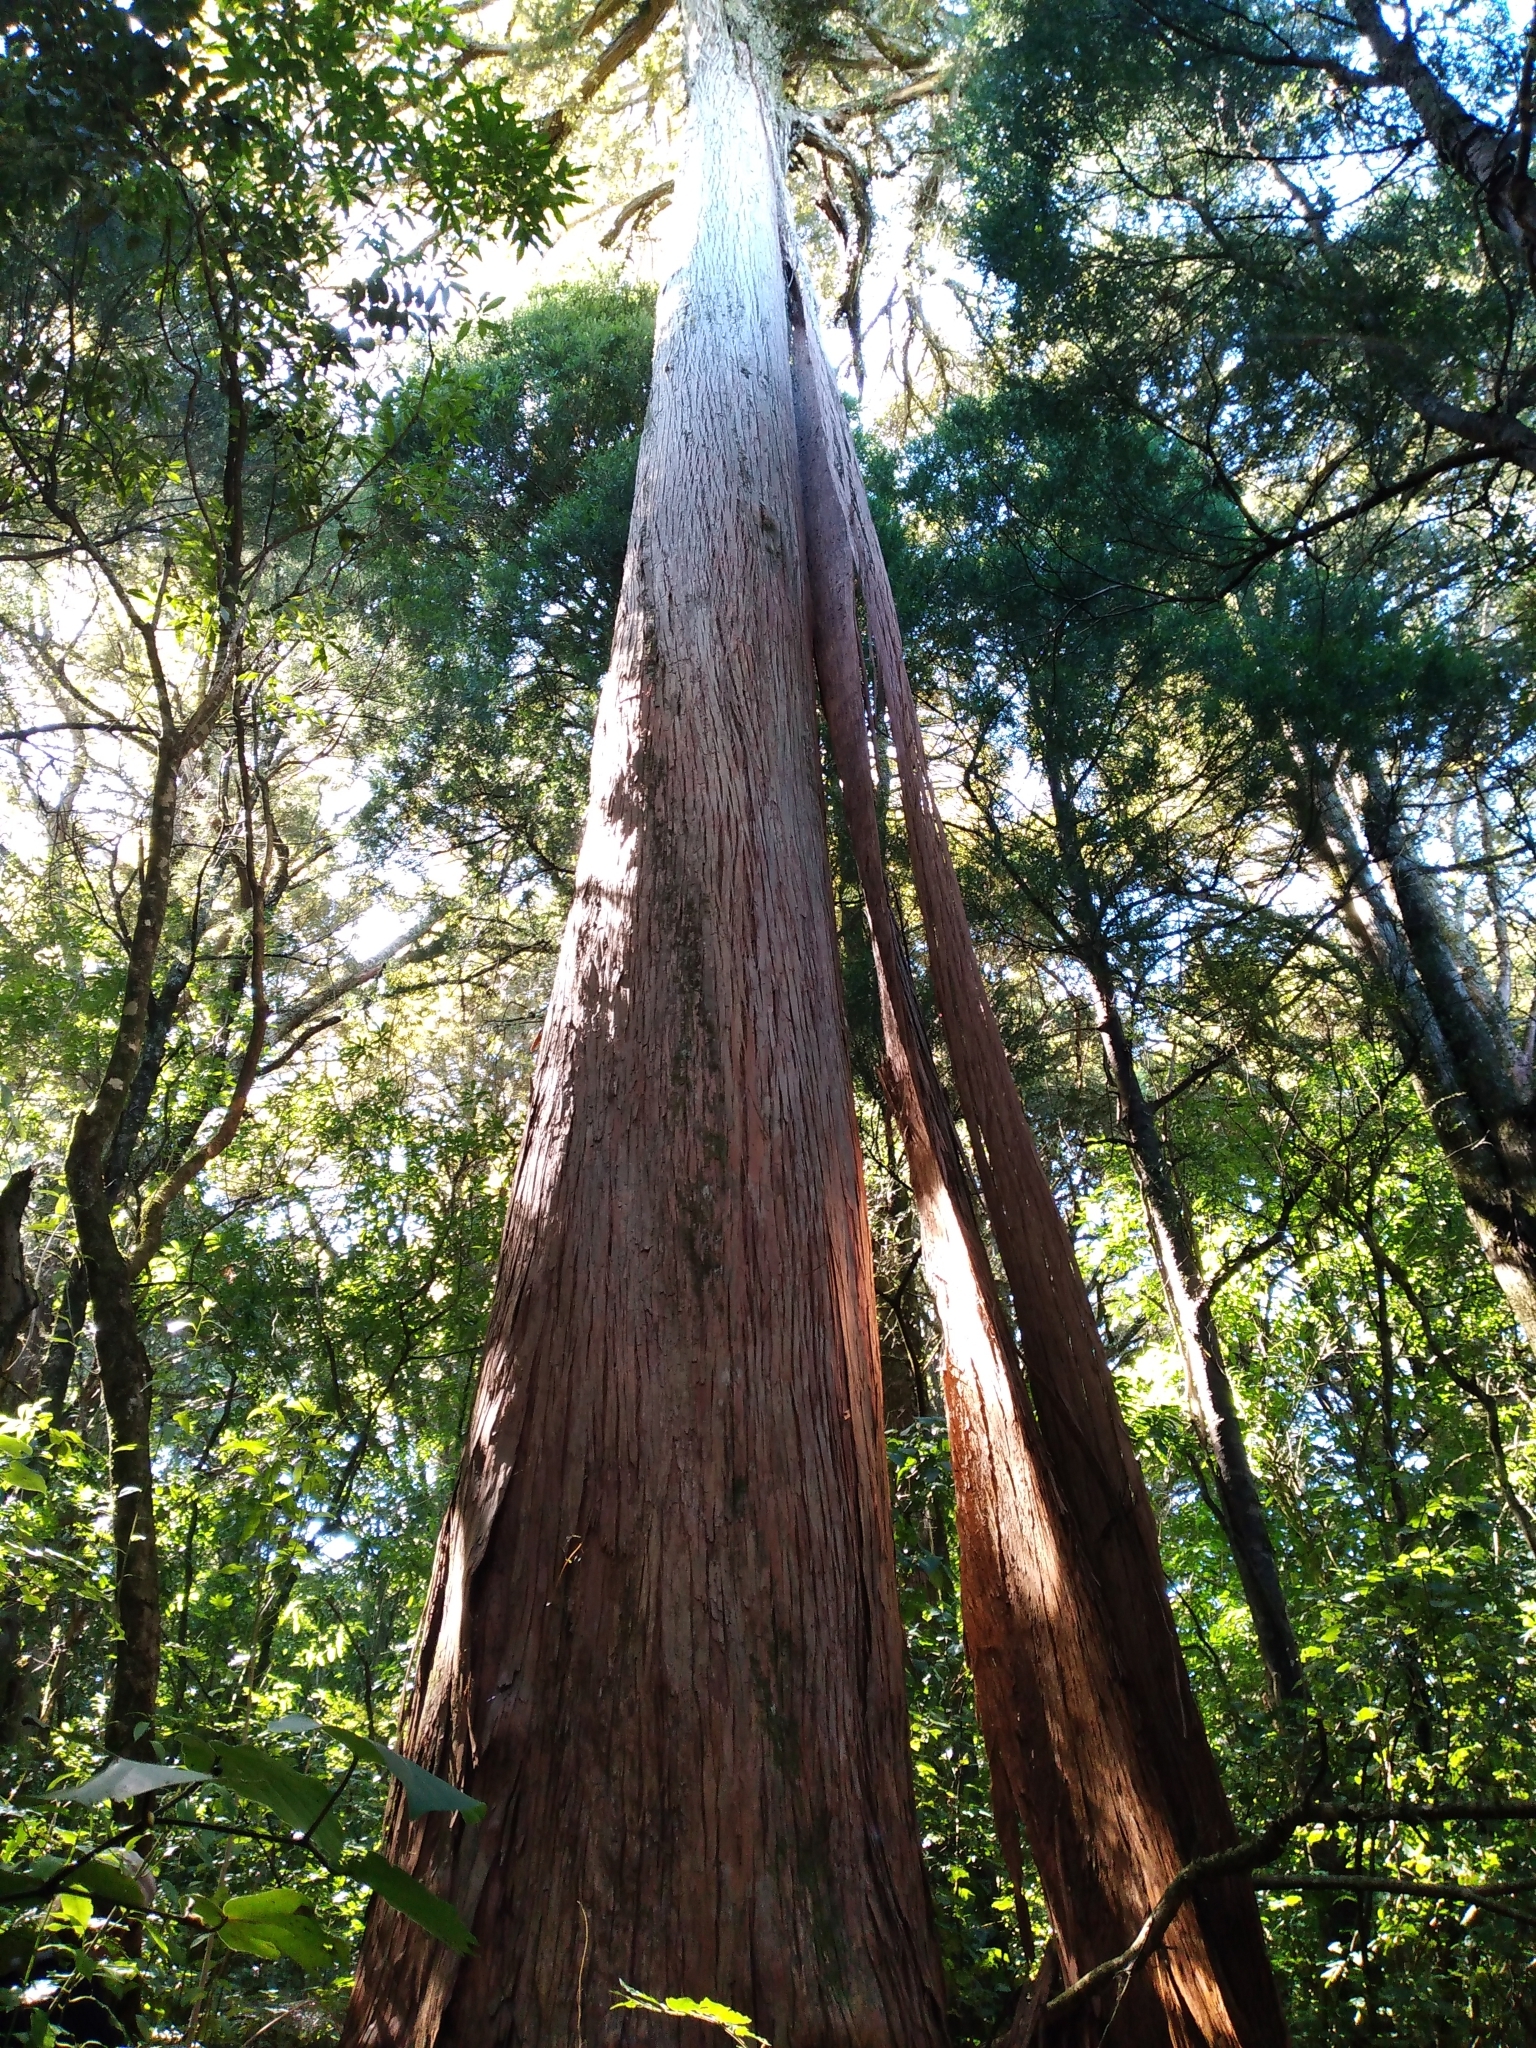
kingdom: Plantae
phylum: Tracheophyta
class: Pinopsida
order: Pinales
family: Podocarpaceae
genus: Podocarpus
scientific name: Podocarpus totara
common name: Totara
